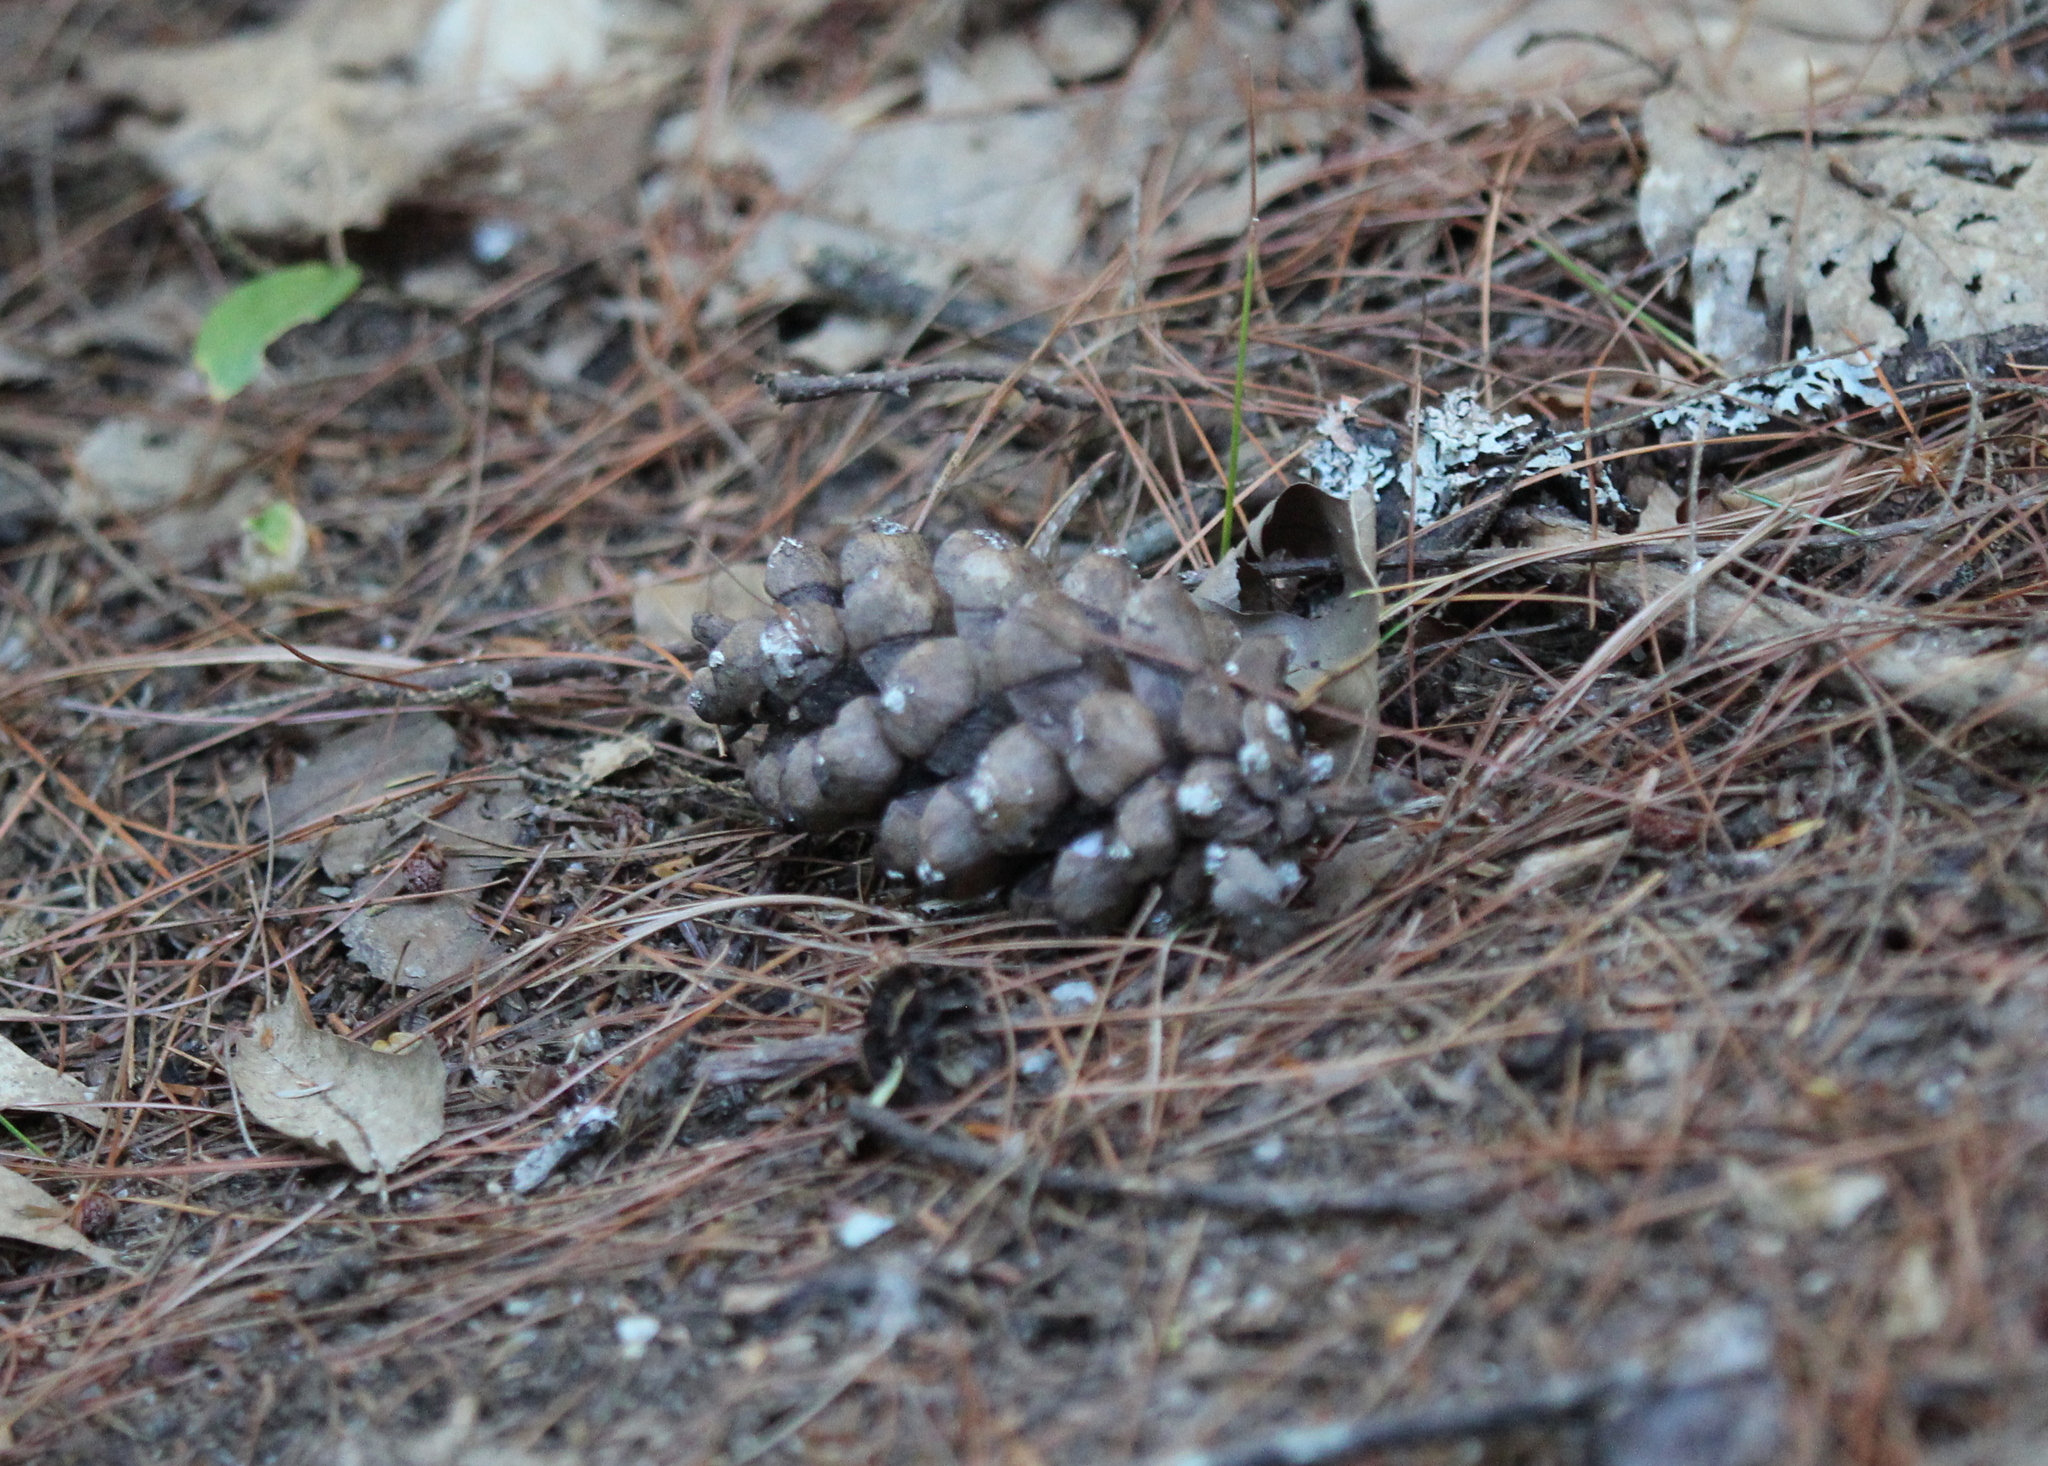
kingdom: Plantae
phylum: Tracheophyta
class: Pinopsida
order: Pinales
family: Pinaceae
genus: Pinus
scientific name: Pinus strobus
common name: Weymouth pine
